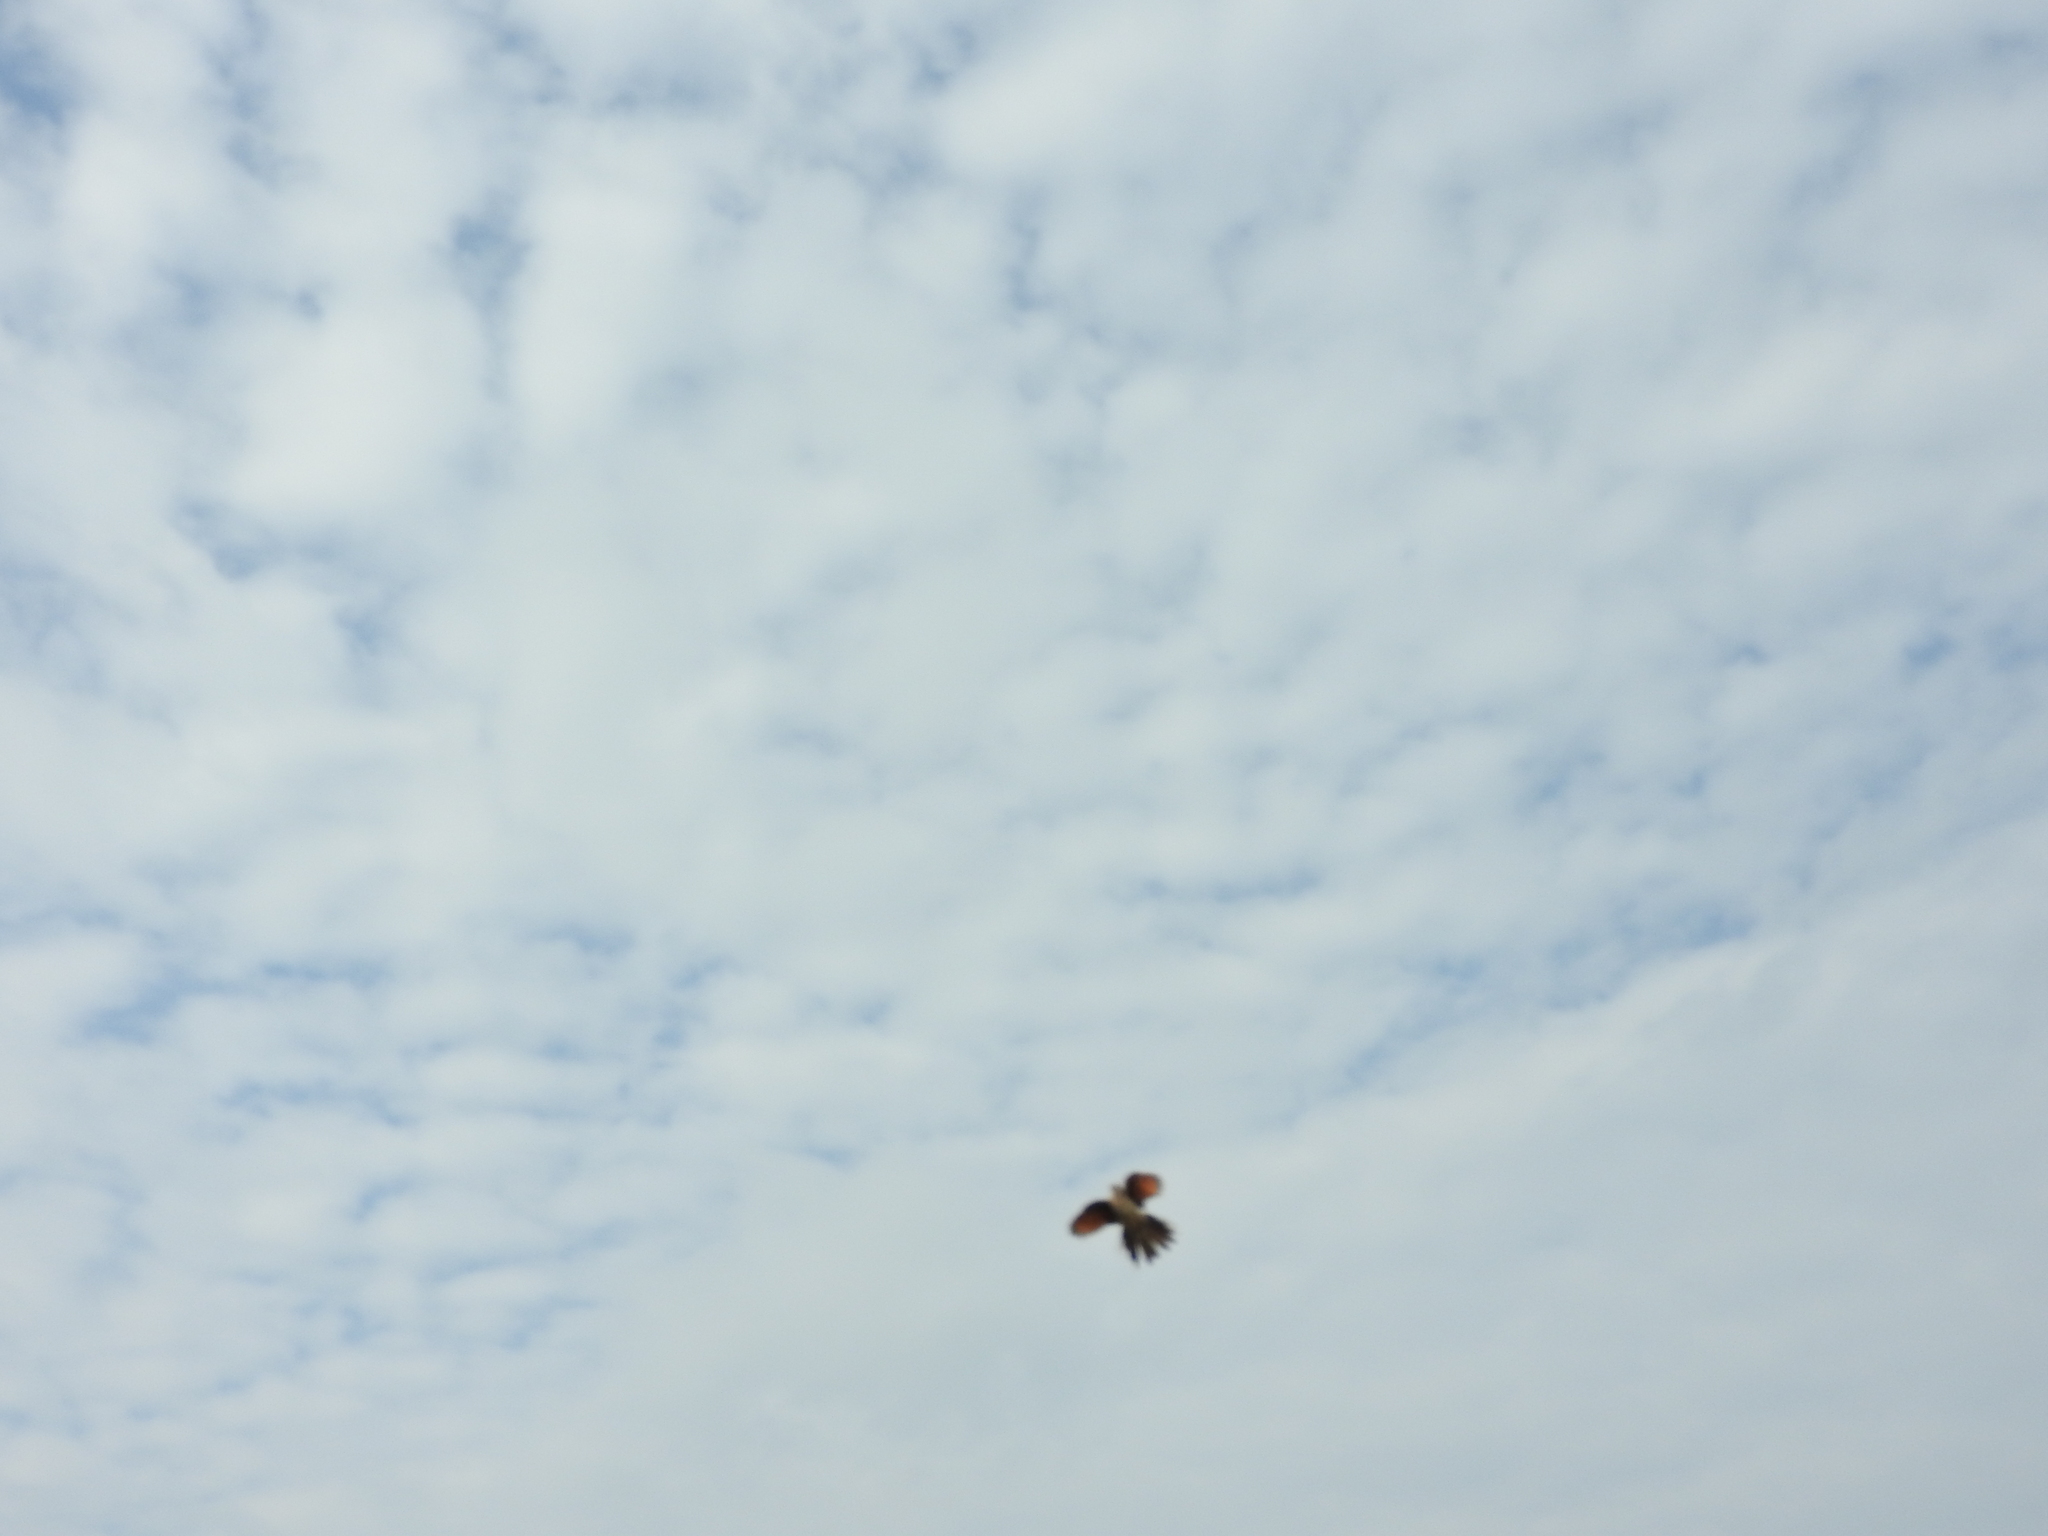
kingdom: Animalia
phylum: Chordata
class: Aves
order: Columbiformes
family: Columbidae
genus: Columbina
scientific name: Columbina inca
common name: Inca dove
